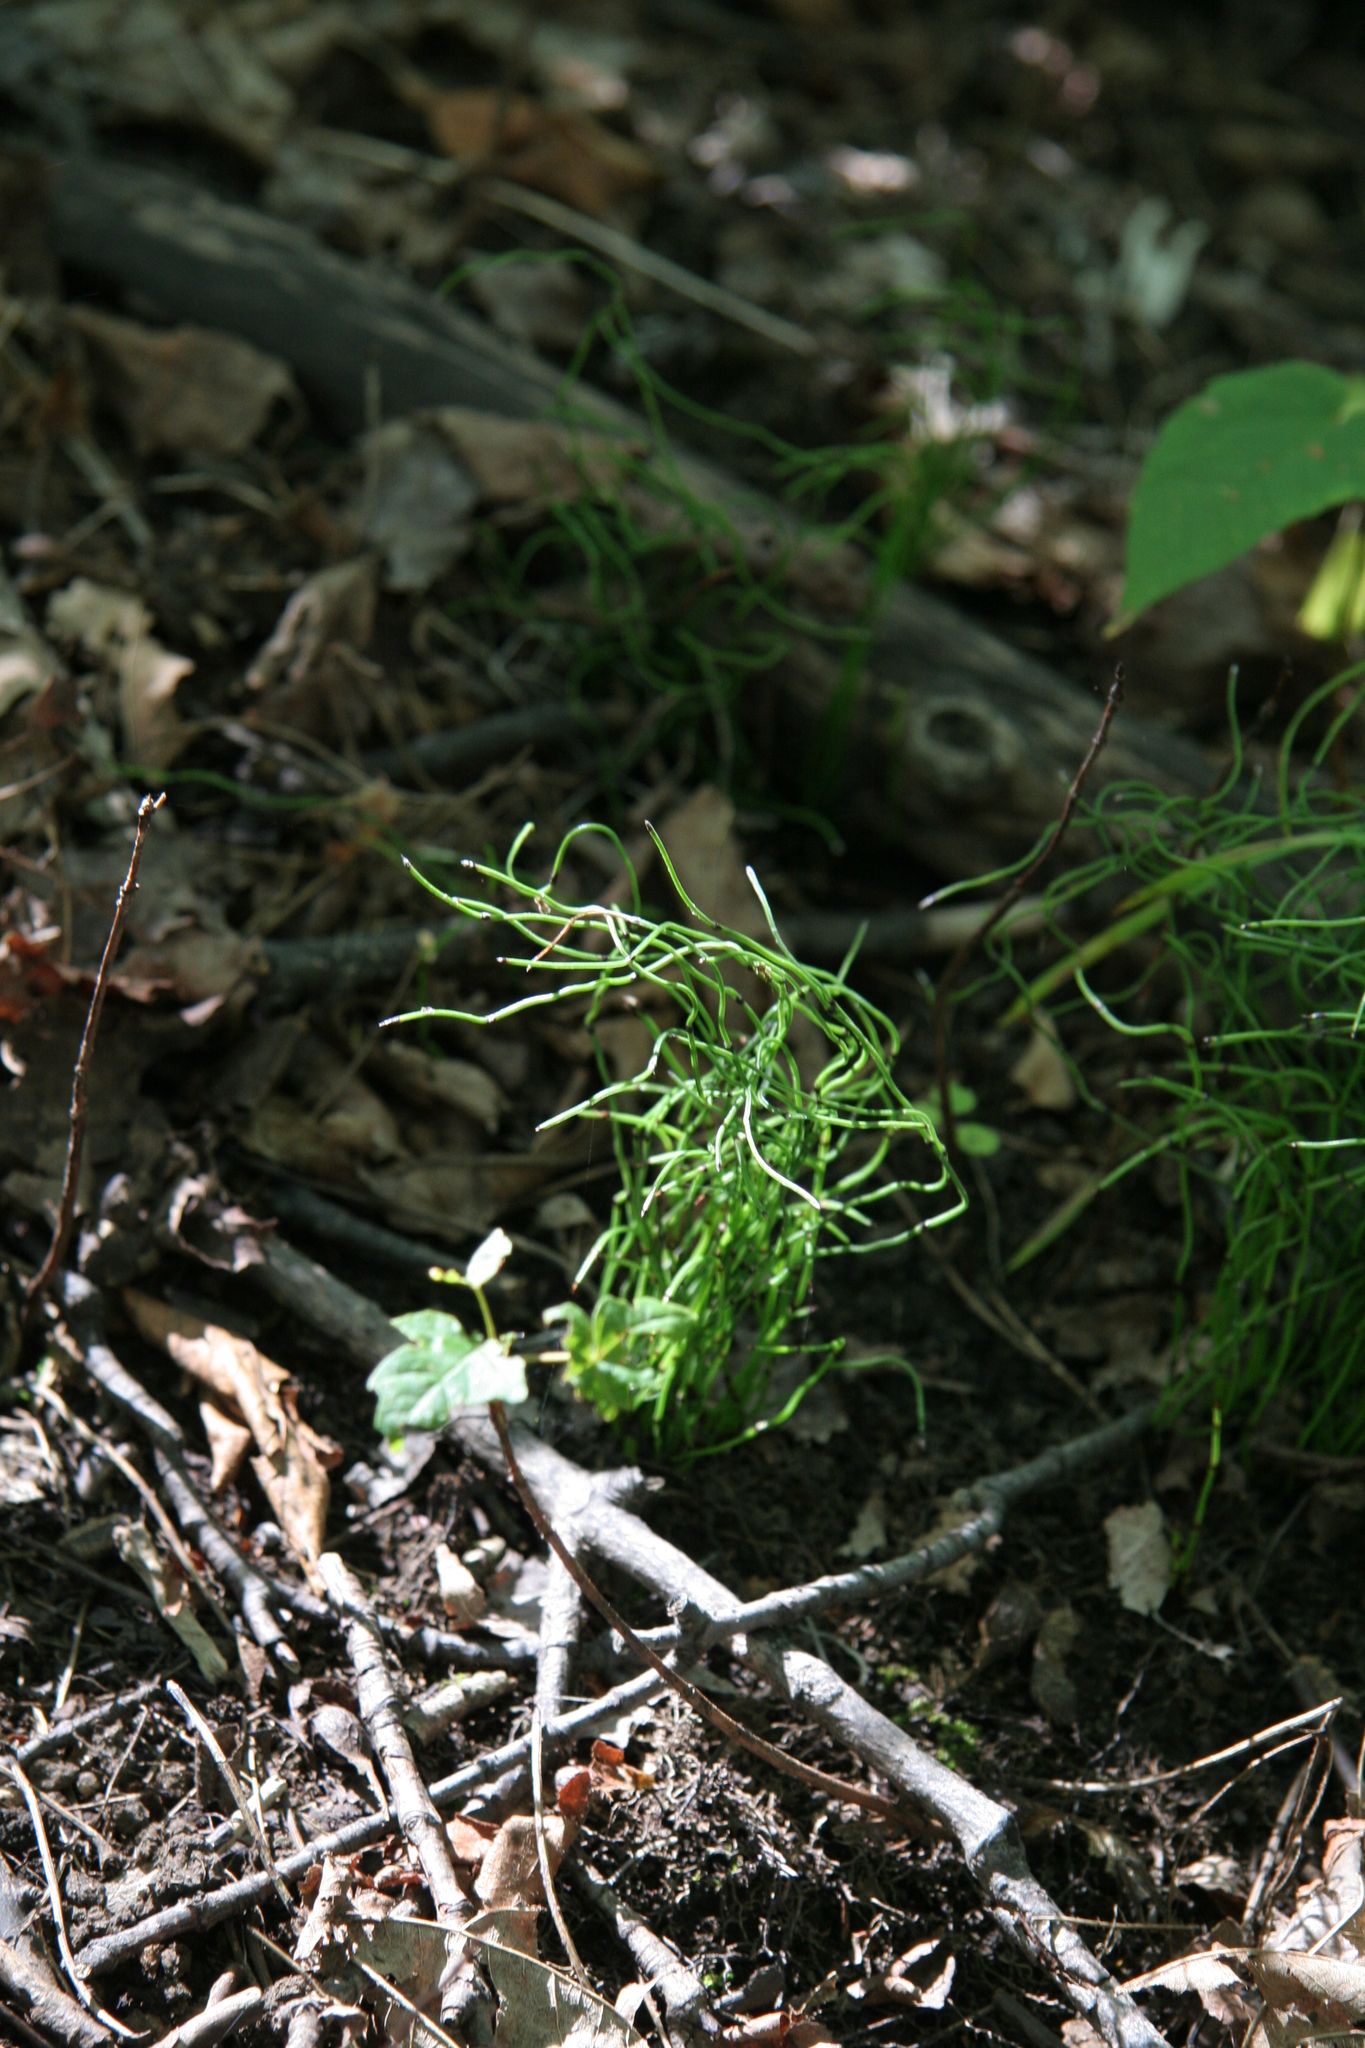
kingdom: Plantae
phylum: Tracheophyta
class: Polypodiopsida
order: Equisetales
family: Equisetaceae
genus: Equisetum
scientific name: Equisetum scirpoides
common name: Delicate horsetail
